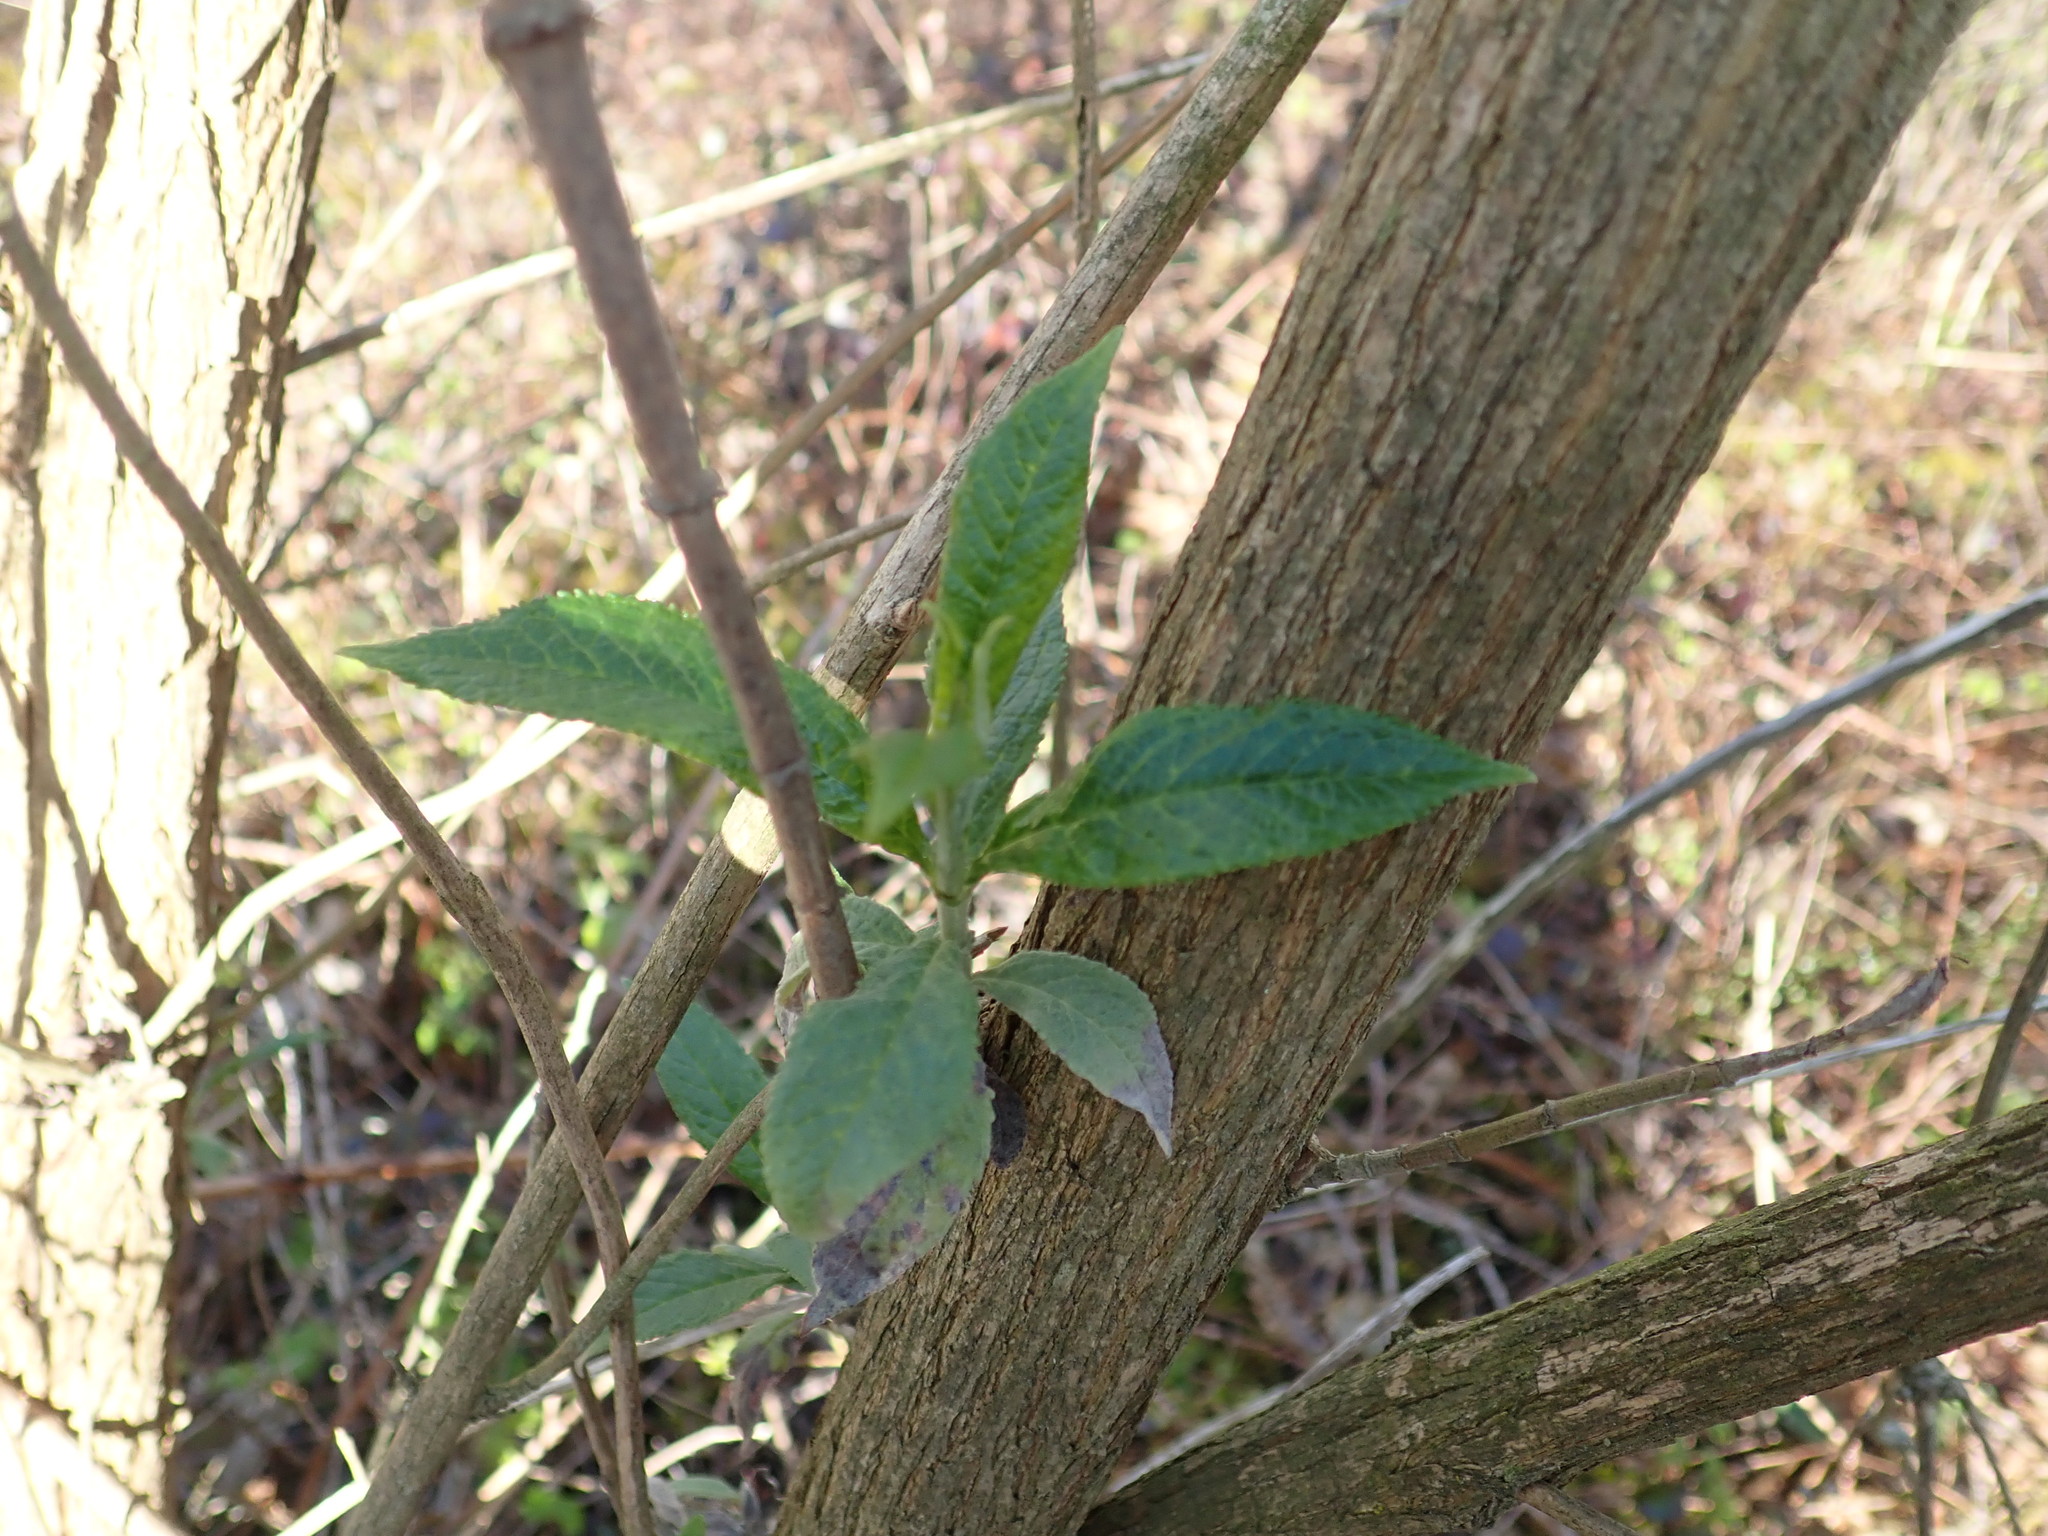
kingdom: Plantae
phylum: Tracheophyta
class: Magnoliopsida
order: Lamiales
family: Scrophulariaceae
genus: Buddleja
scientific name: Buddleja davidii
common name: Butterfly-bush
